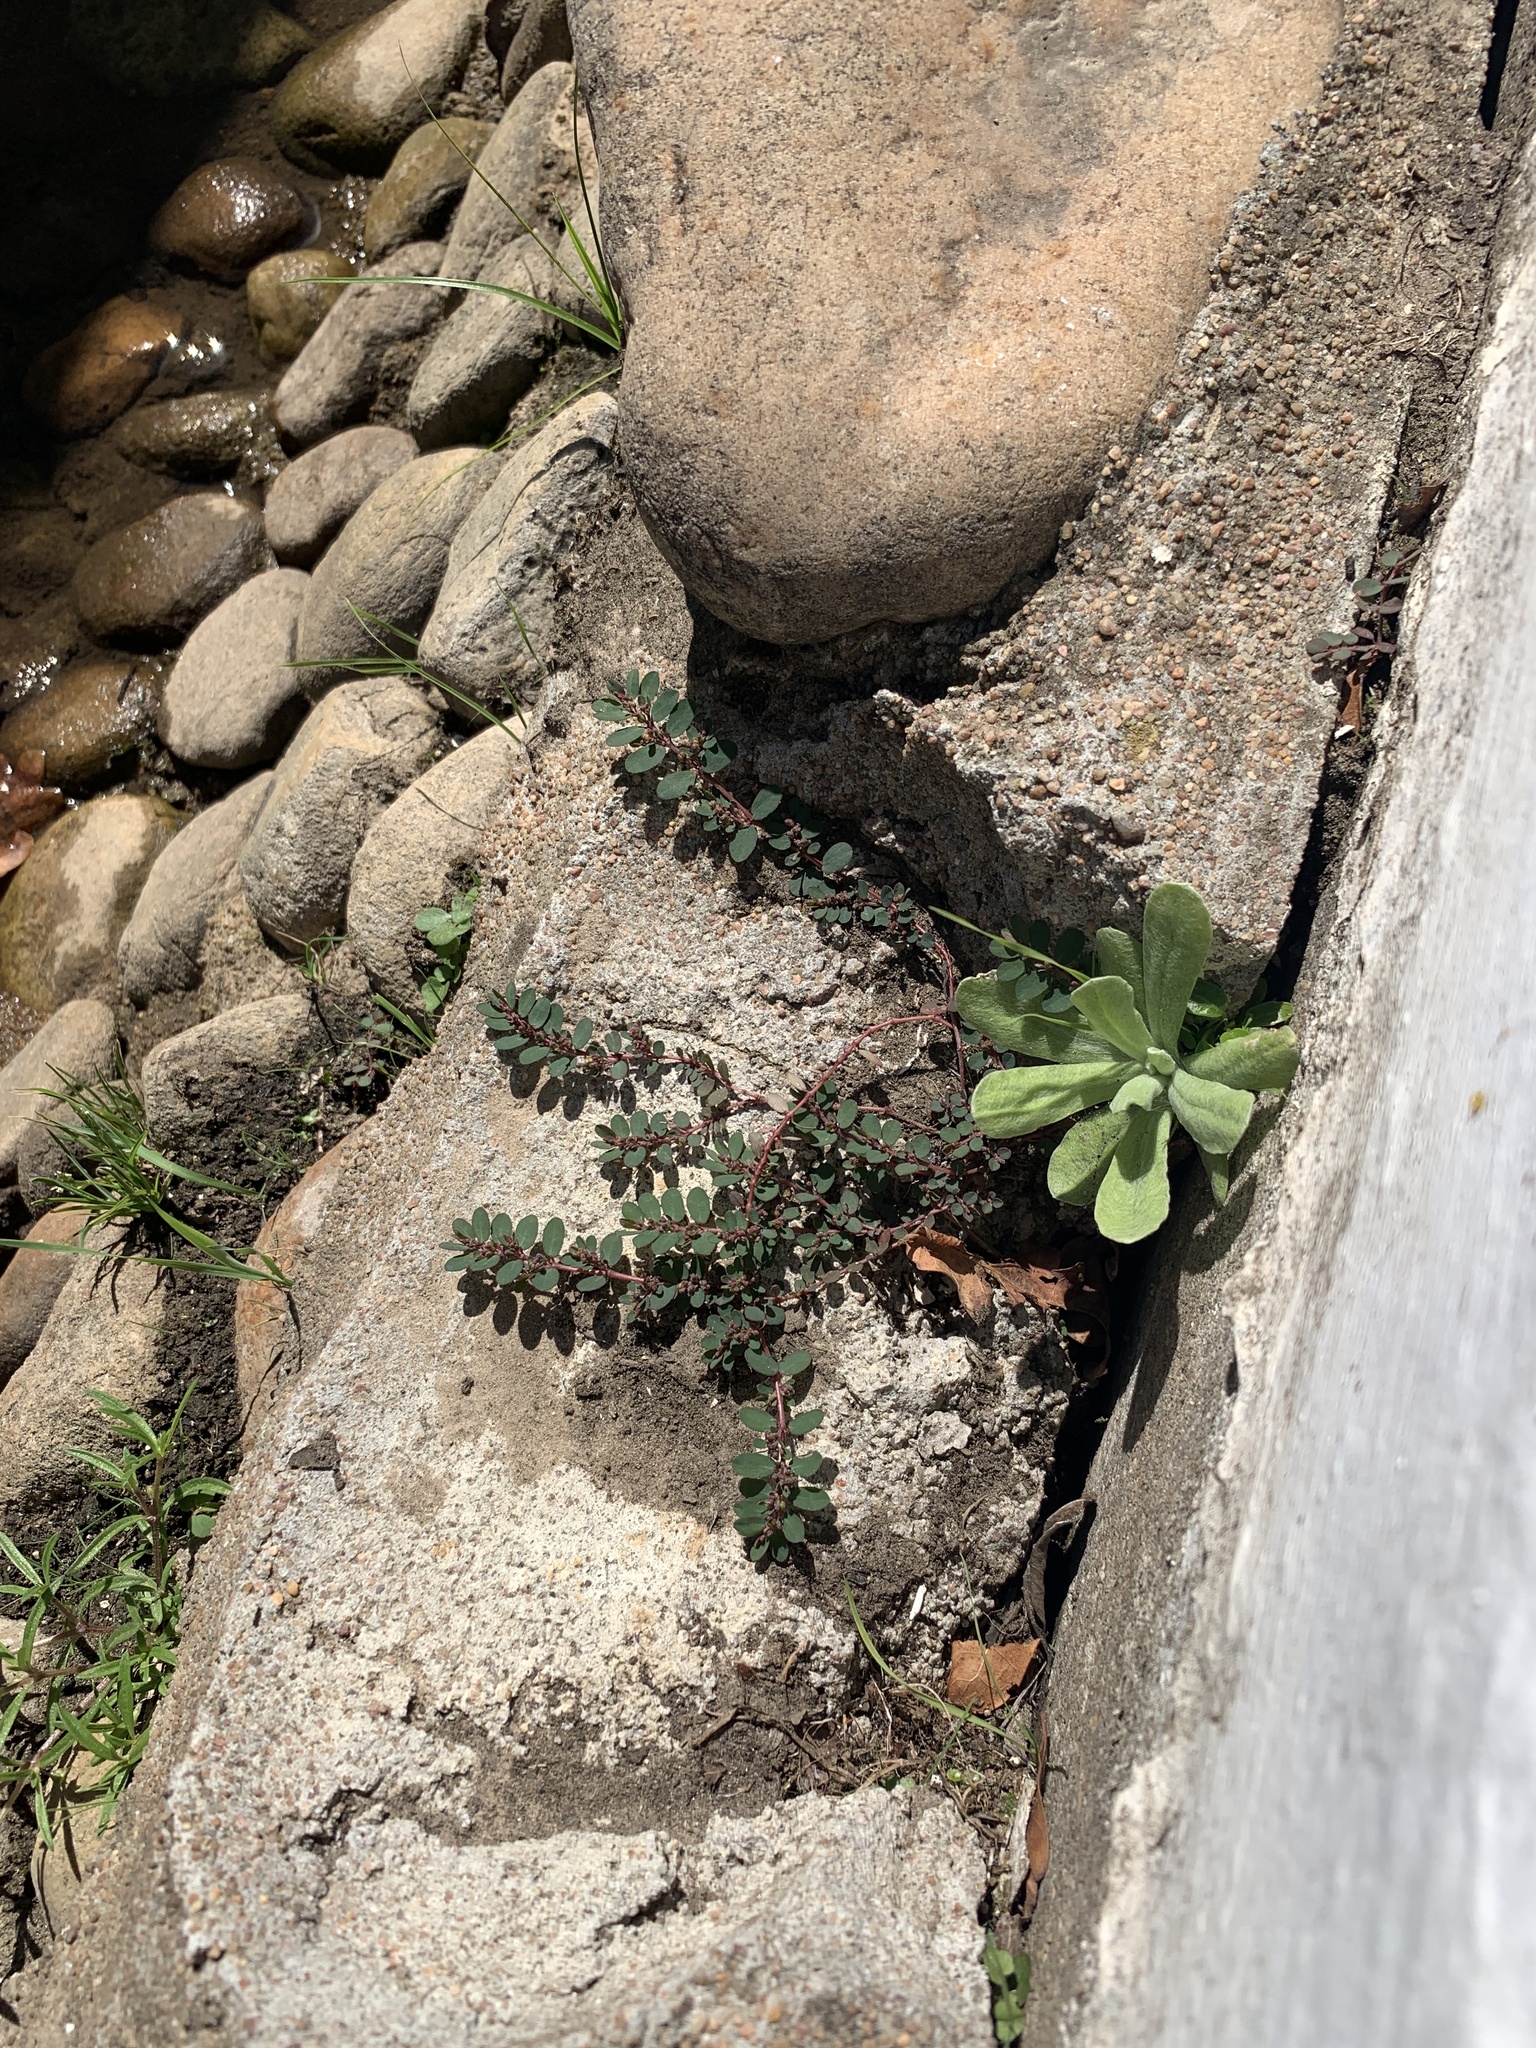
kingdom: Plantae
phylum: Tracheophyta
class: Magnoliopsida
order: Malpighiales
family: Euphorbiaceae
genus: Euphorbia
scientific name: Euphorbia prostrata
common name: Prostrate sandmat
